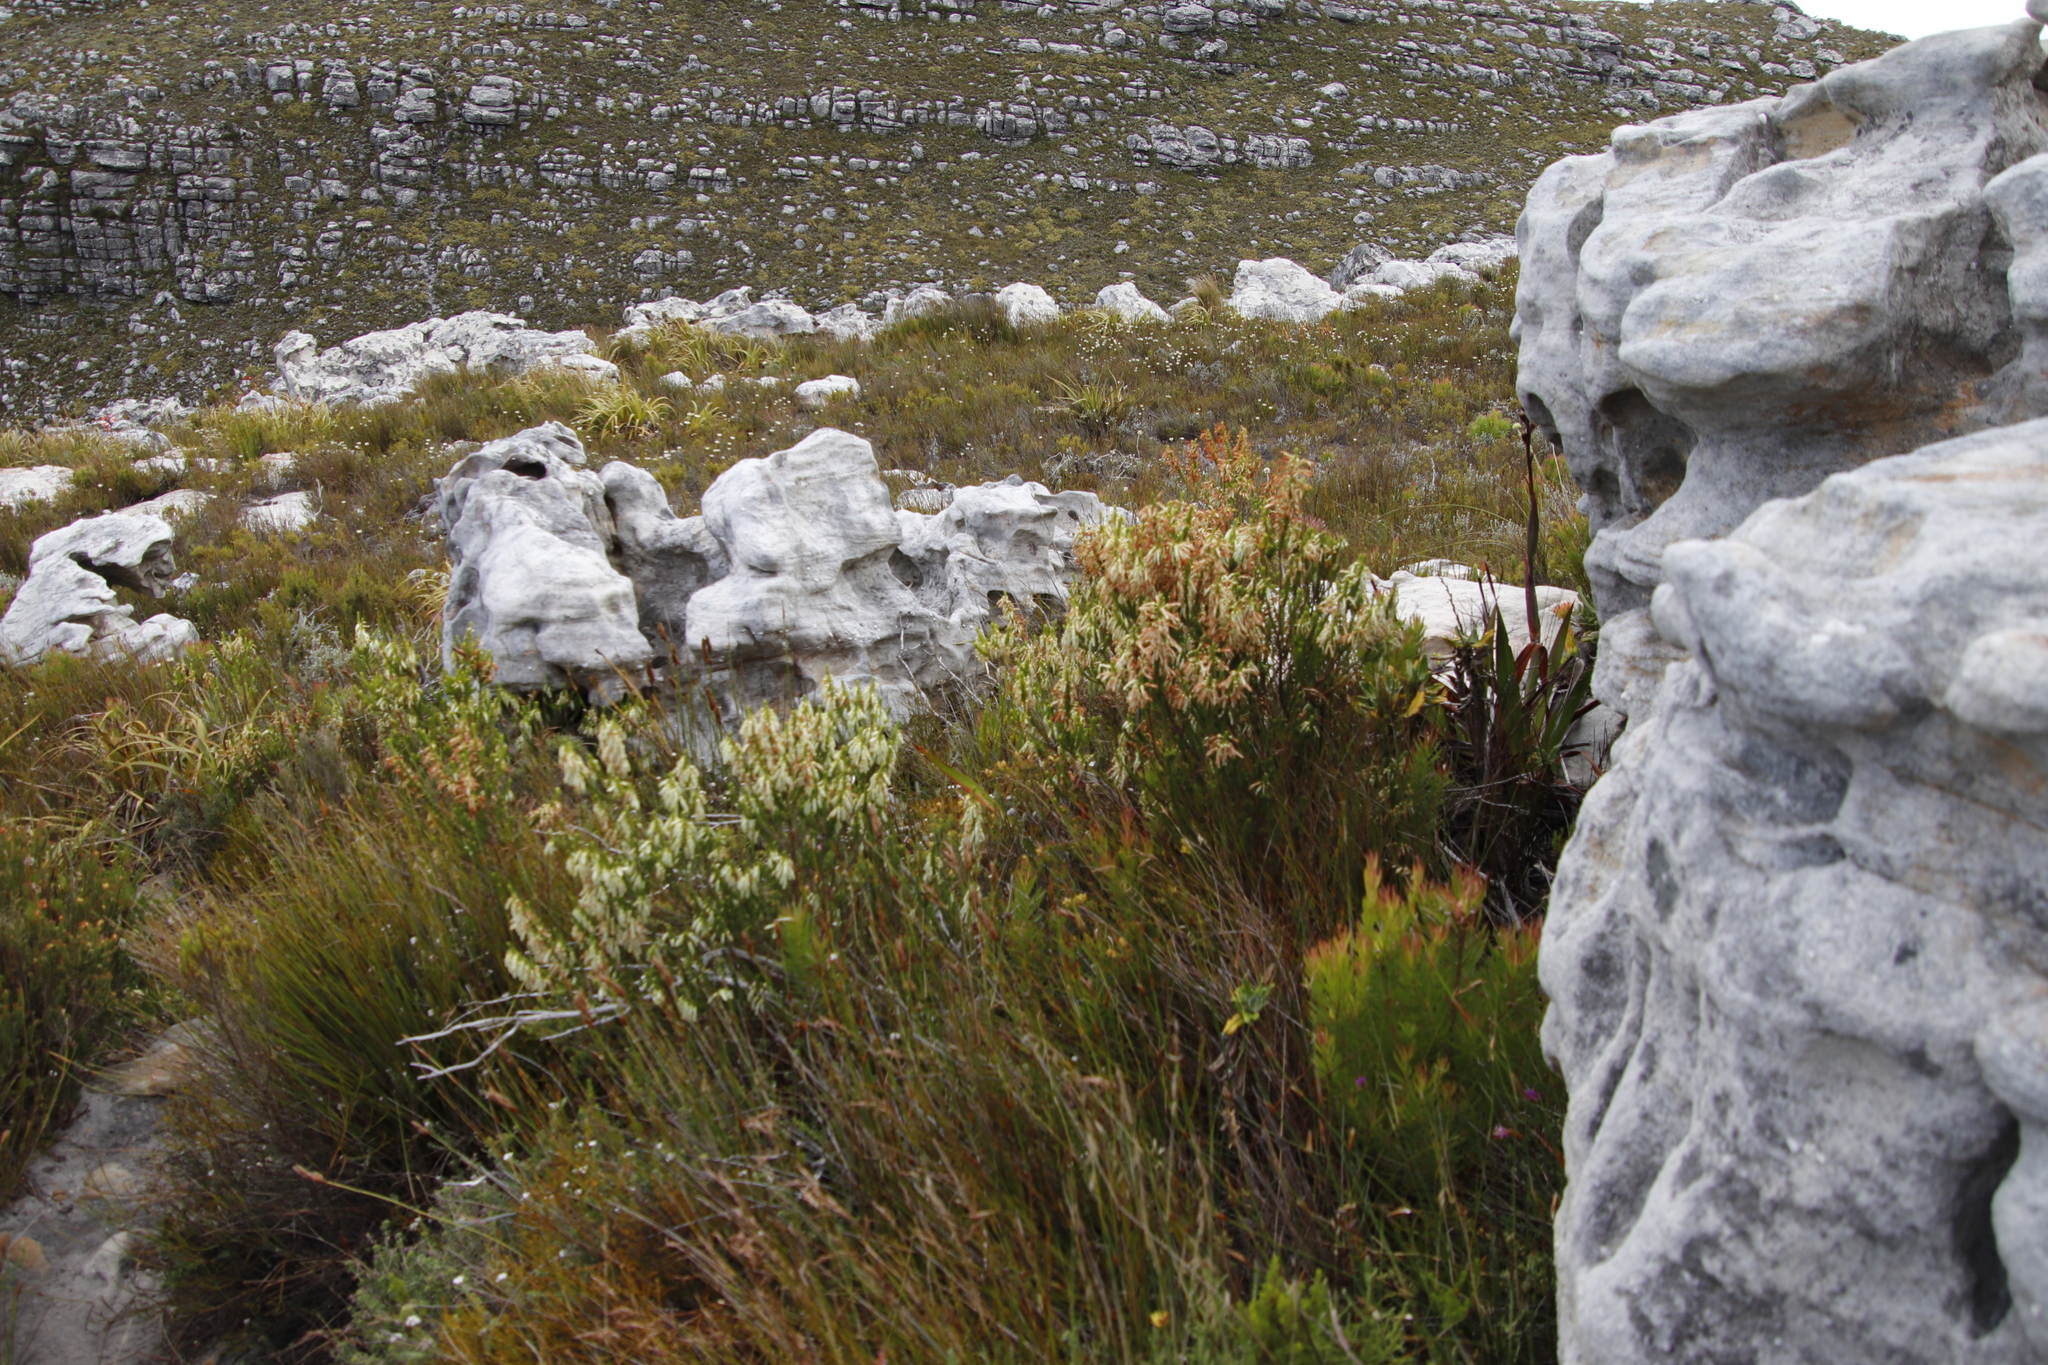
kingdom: Plantae
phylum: Tracheophyta
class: Magnoliopsida
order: Ericales
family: Ericaceae
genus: Erica
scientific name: Erica mammosa
